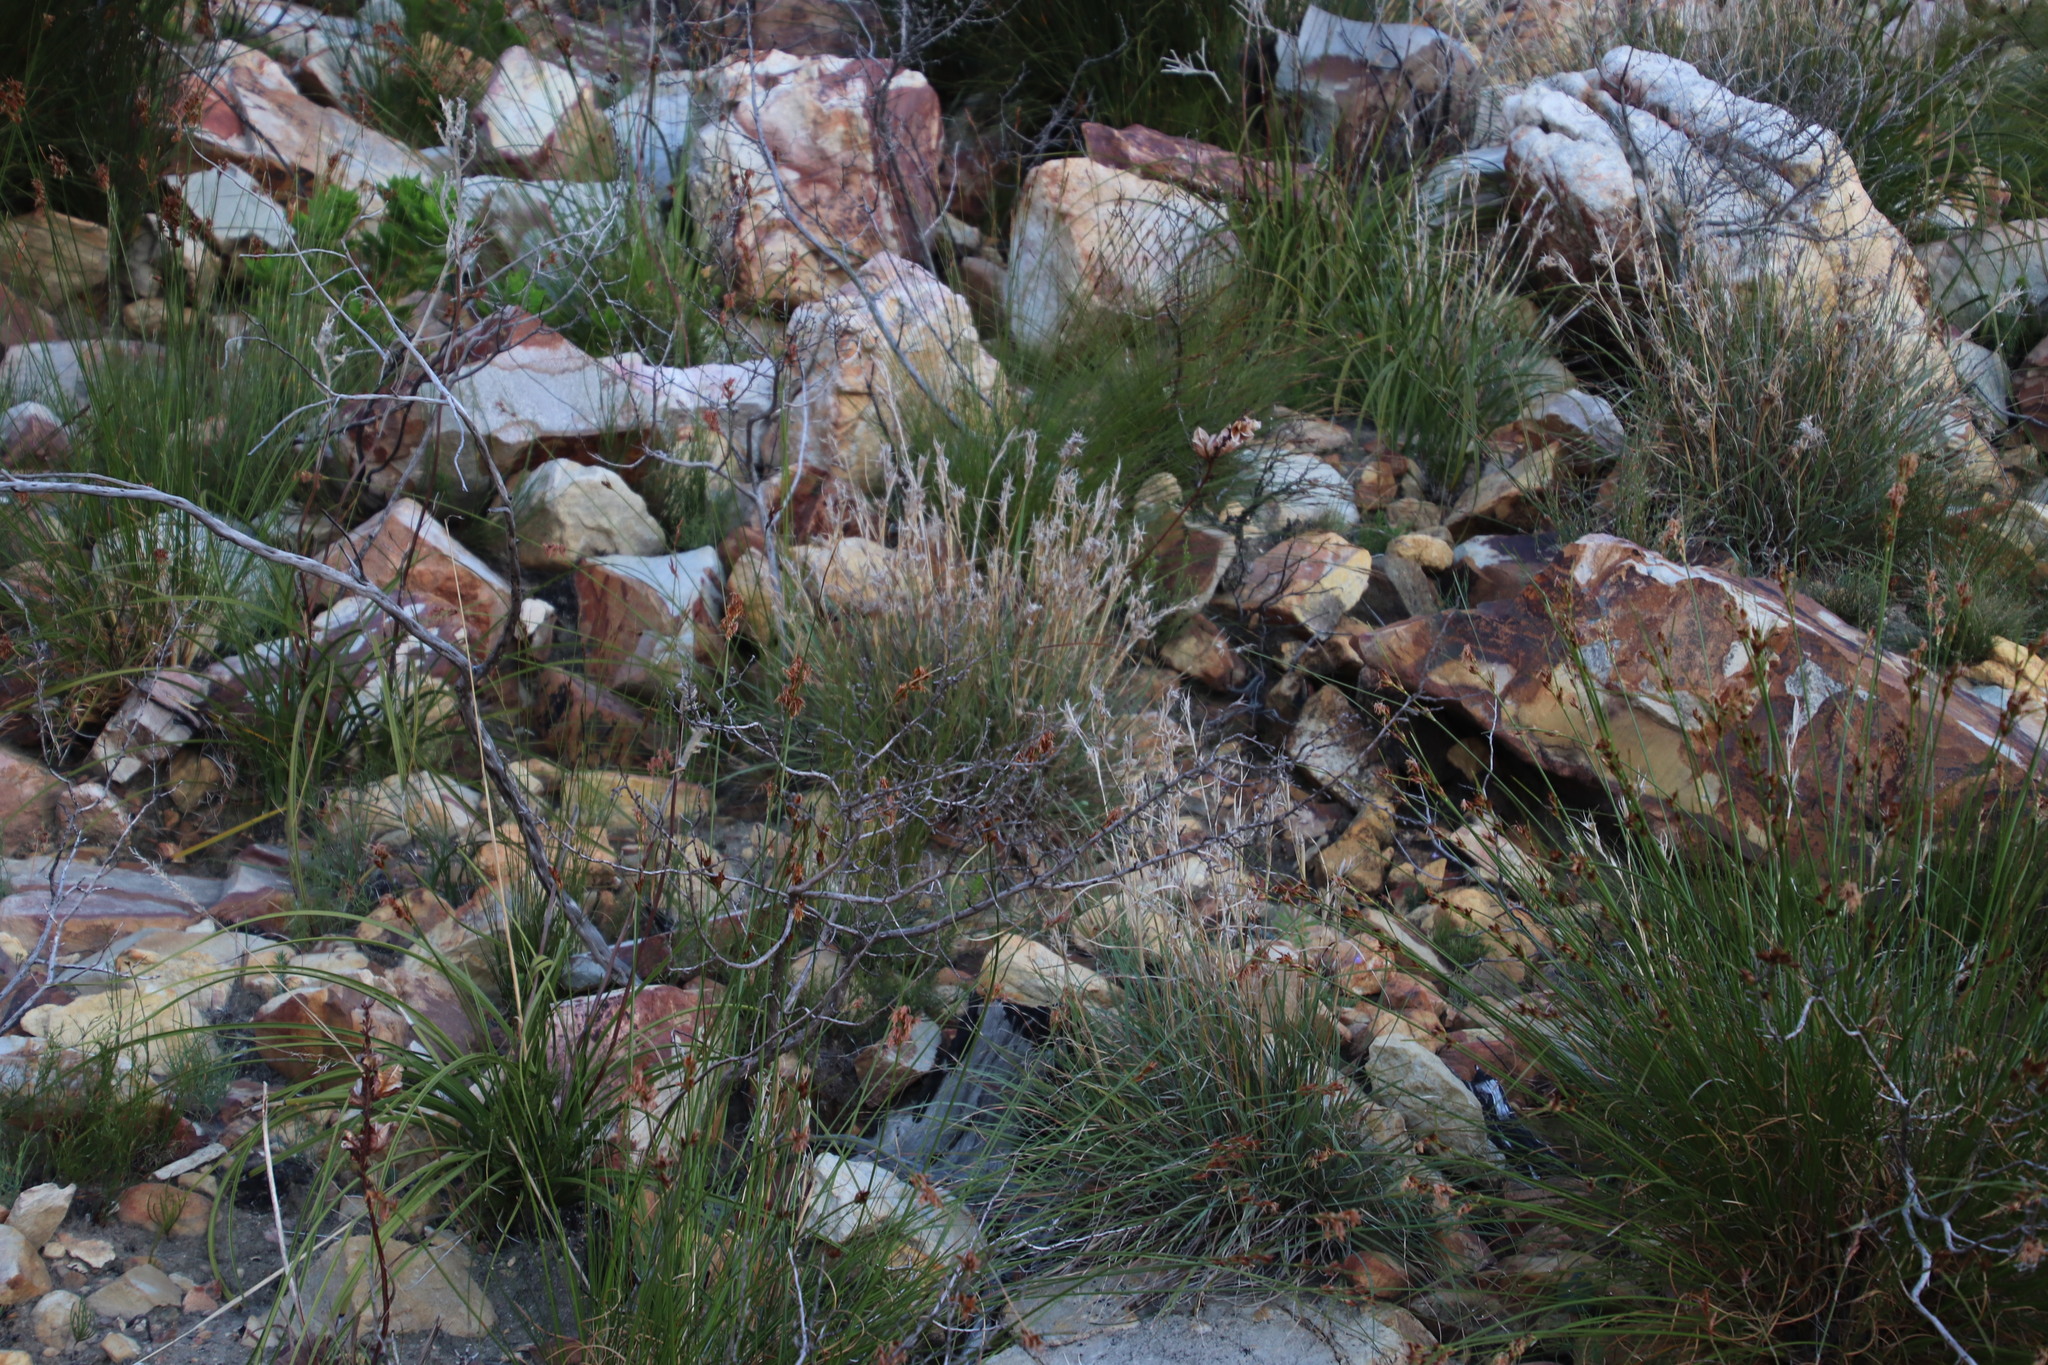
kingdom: Plantae
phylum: Tracheophyta
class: Liliopsida
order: Poales
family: Poaceae
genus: Cymbopogon
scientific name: Cymbopogon marginatus
